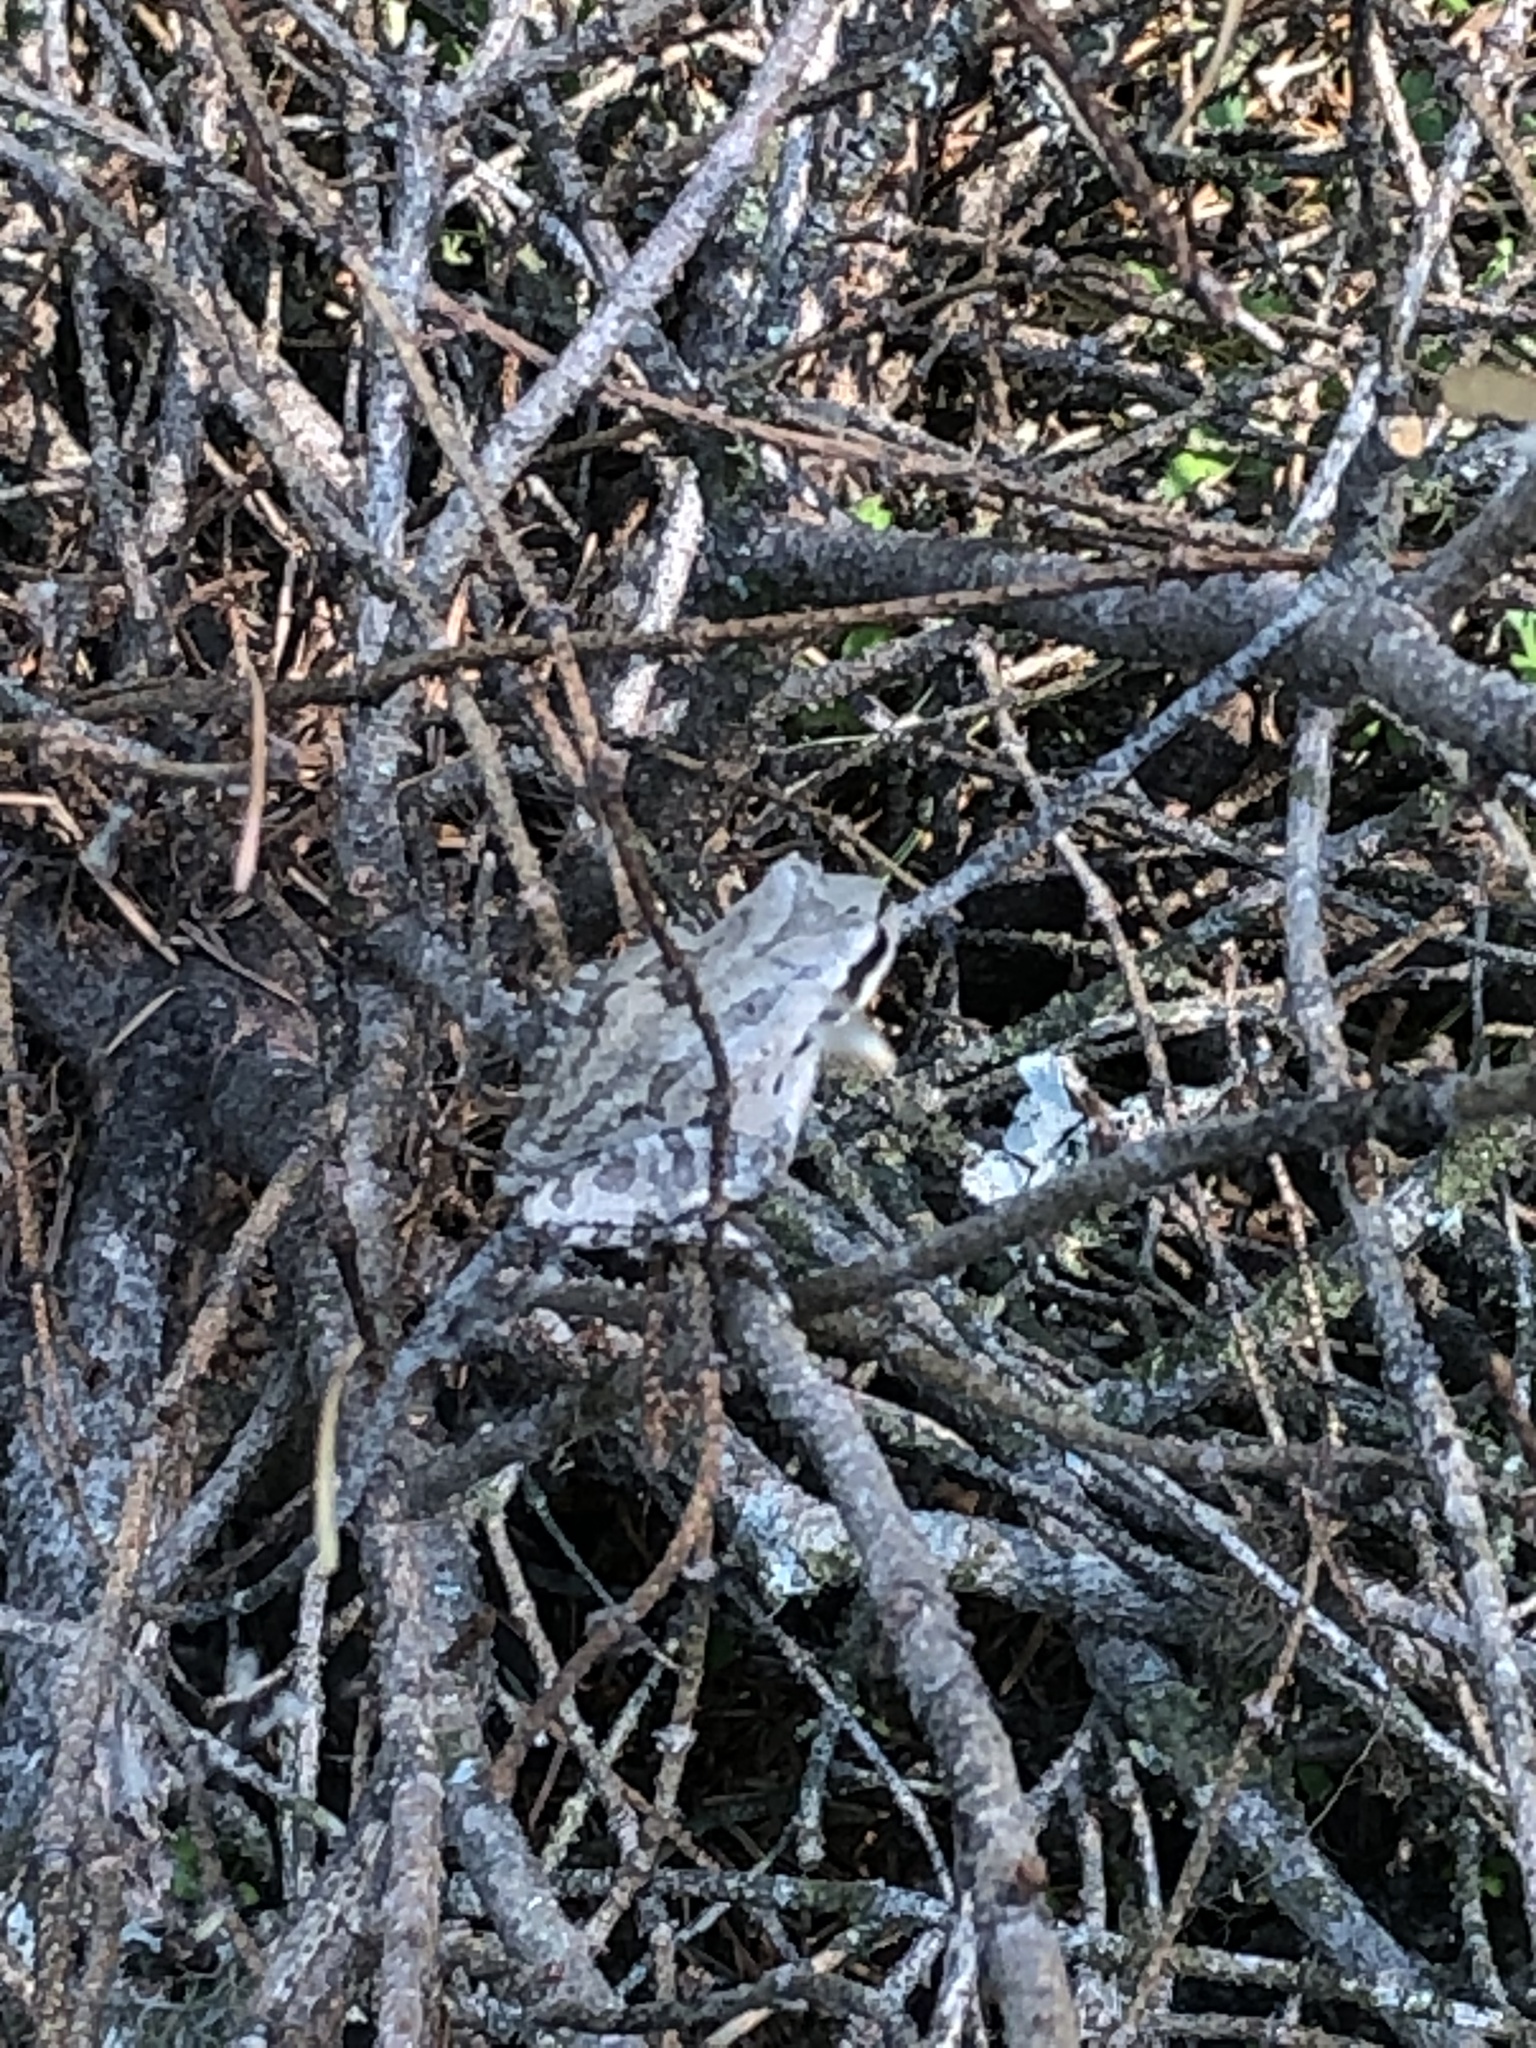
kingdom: Animalia
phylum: Chordata
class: Amphibia
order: Anura
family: Hylidae
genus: Pseudacris
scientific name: Pseudacris regilla
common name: Pacific chorus frog
